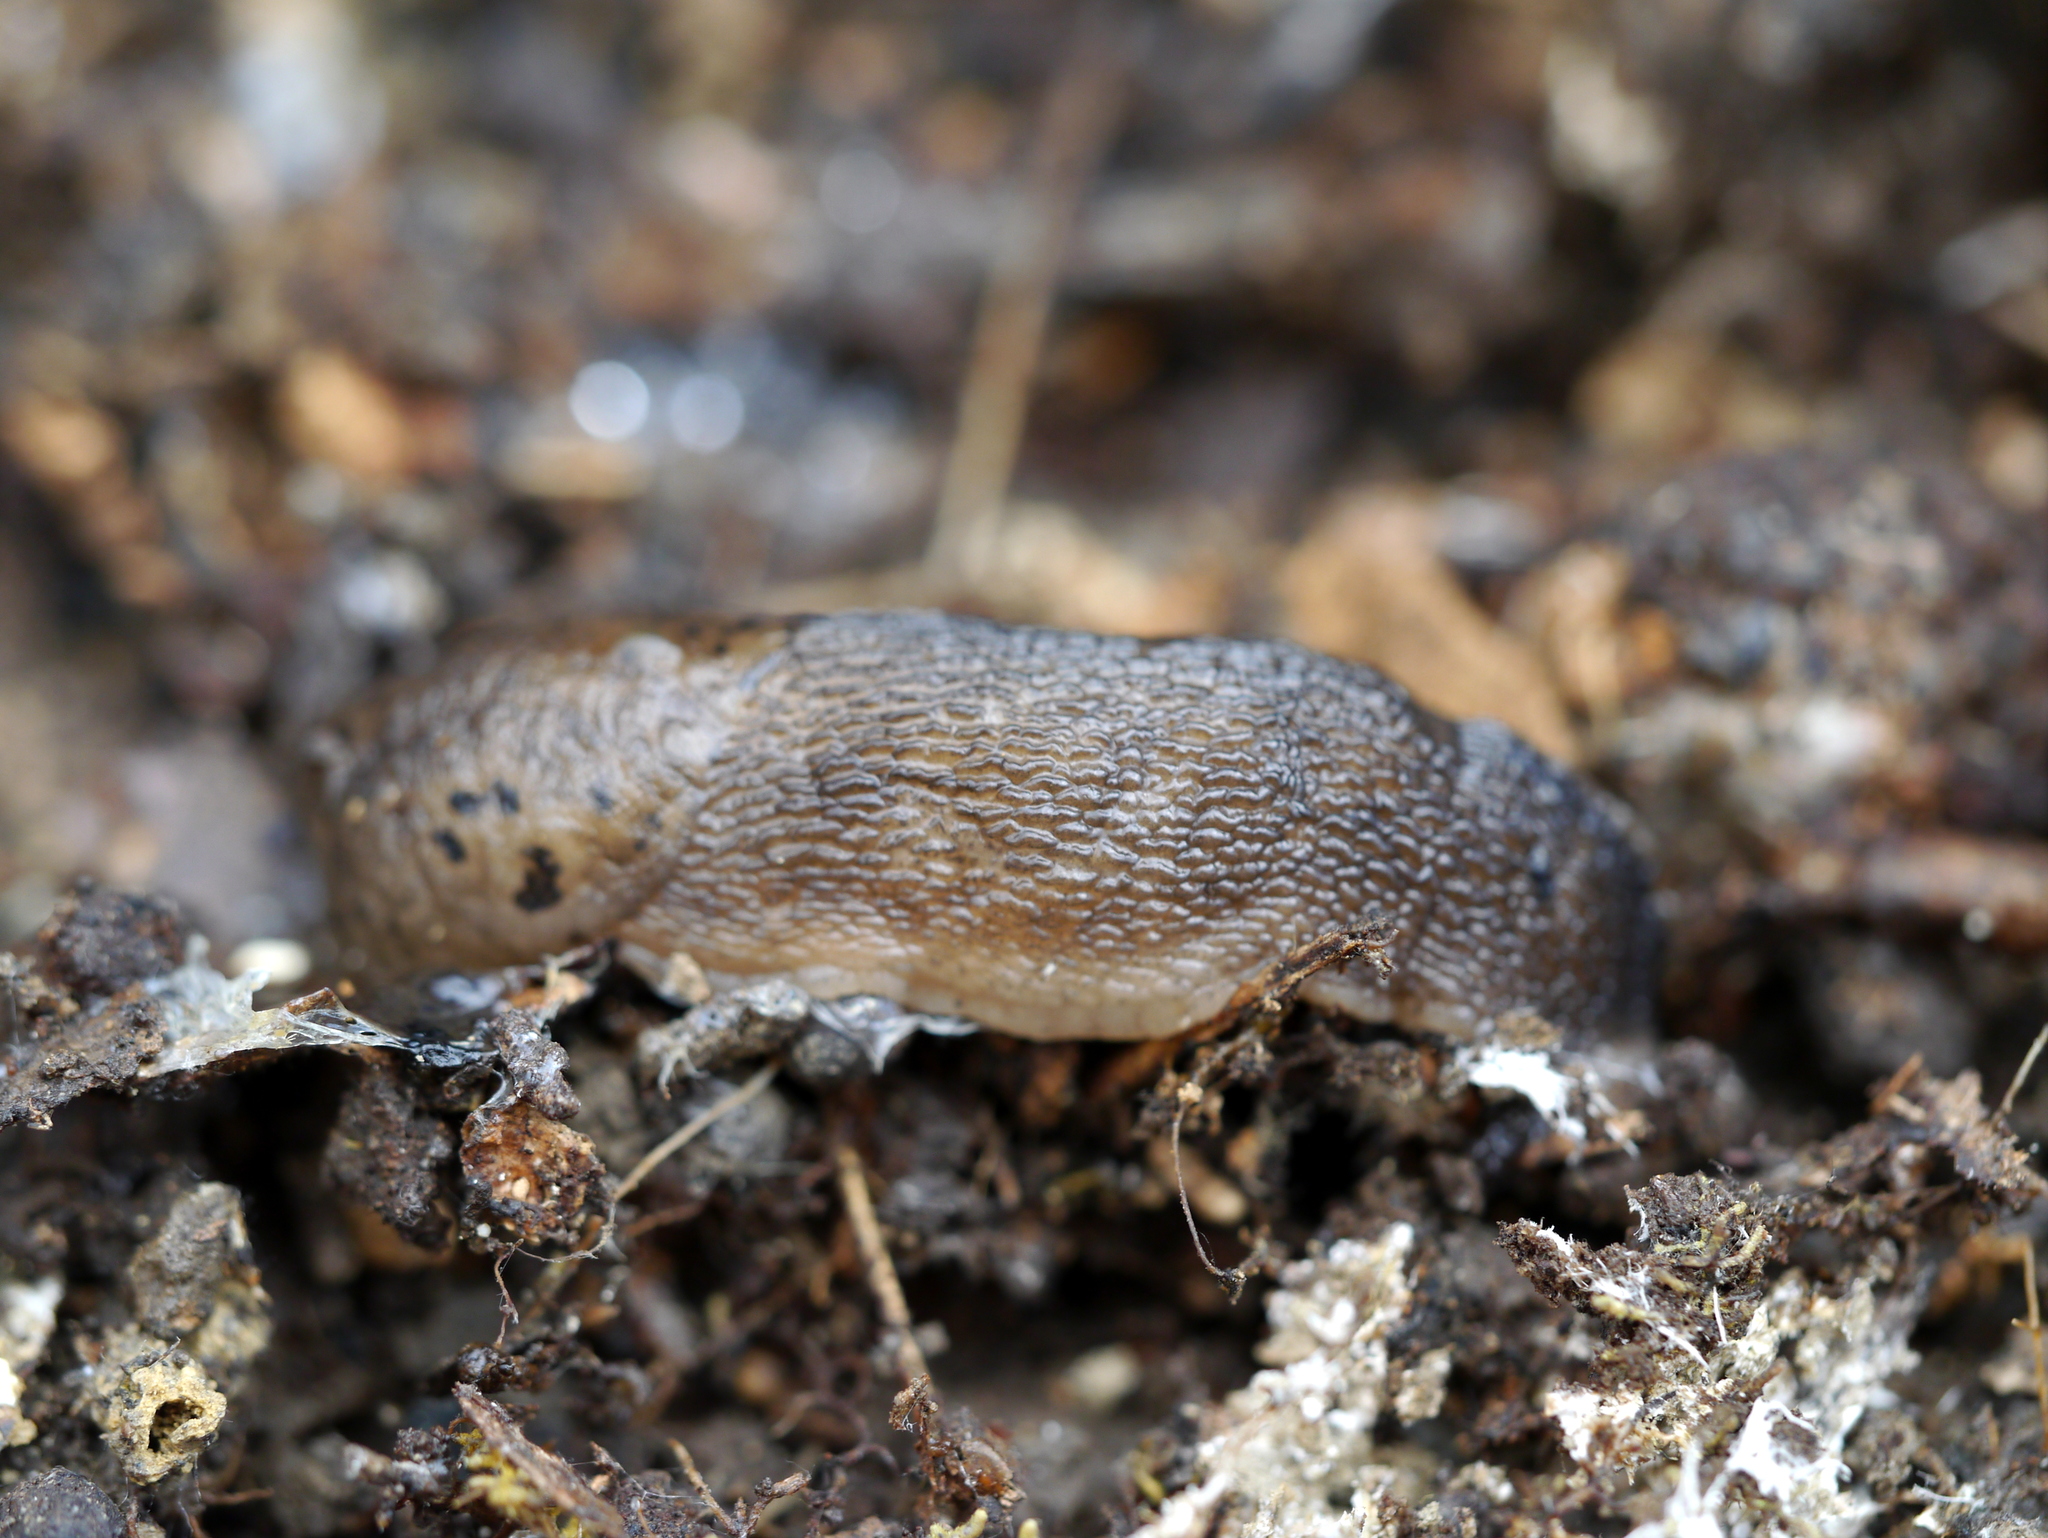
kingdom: Animalia
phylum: Mollusca
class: Gastropoda
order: Stylommatophora
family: Limacidae
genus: Limax
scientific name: Limax maximus
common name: Great grey slug
